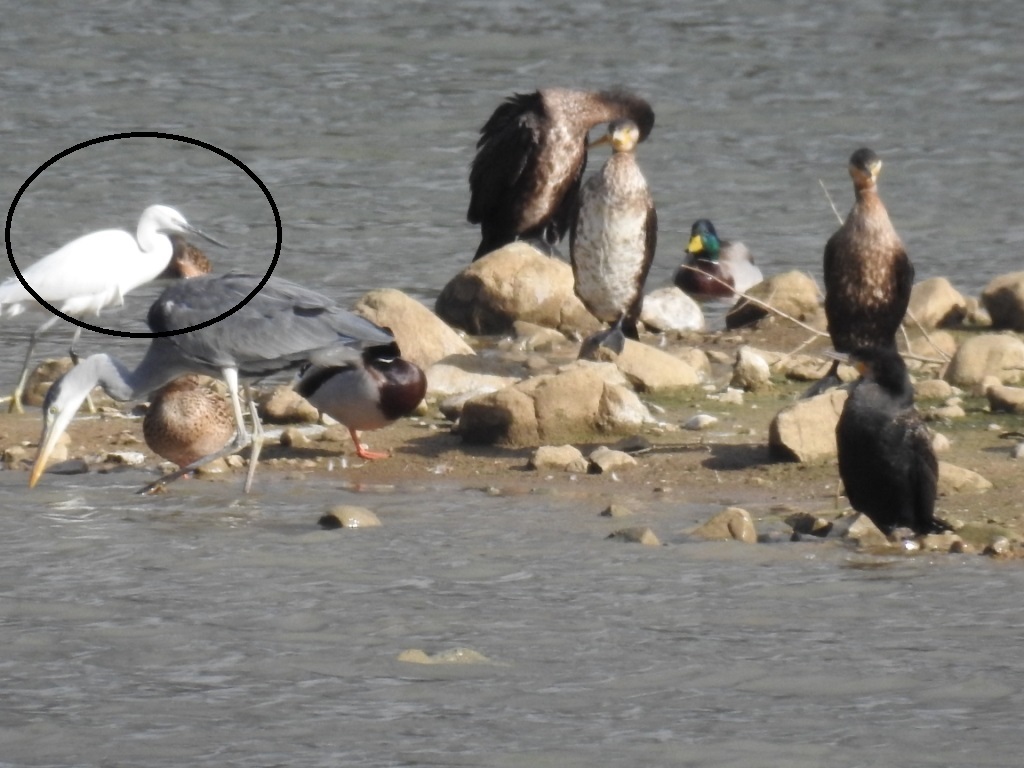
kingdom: Animalia
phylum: Chordata
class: Aves
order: Pelecaniformes
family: Ardeidae
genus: Egretta
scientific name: Egretta garzetta
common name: Little egret
